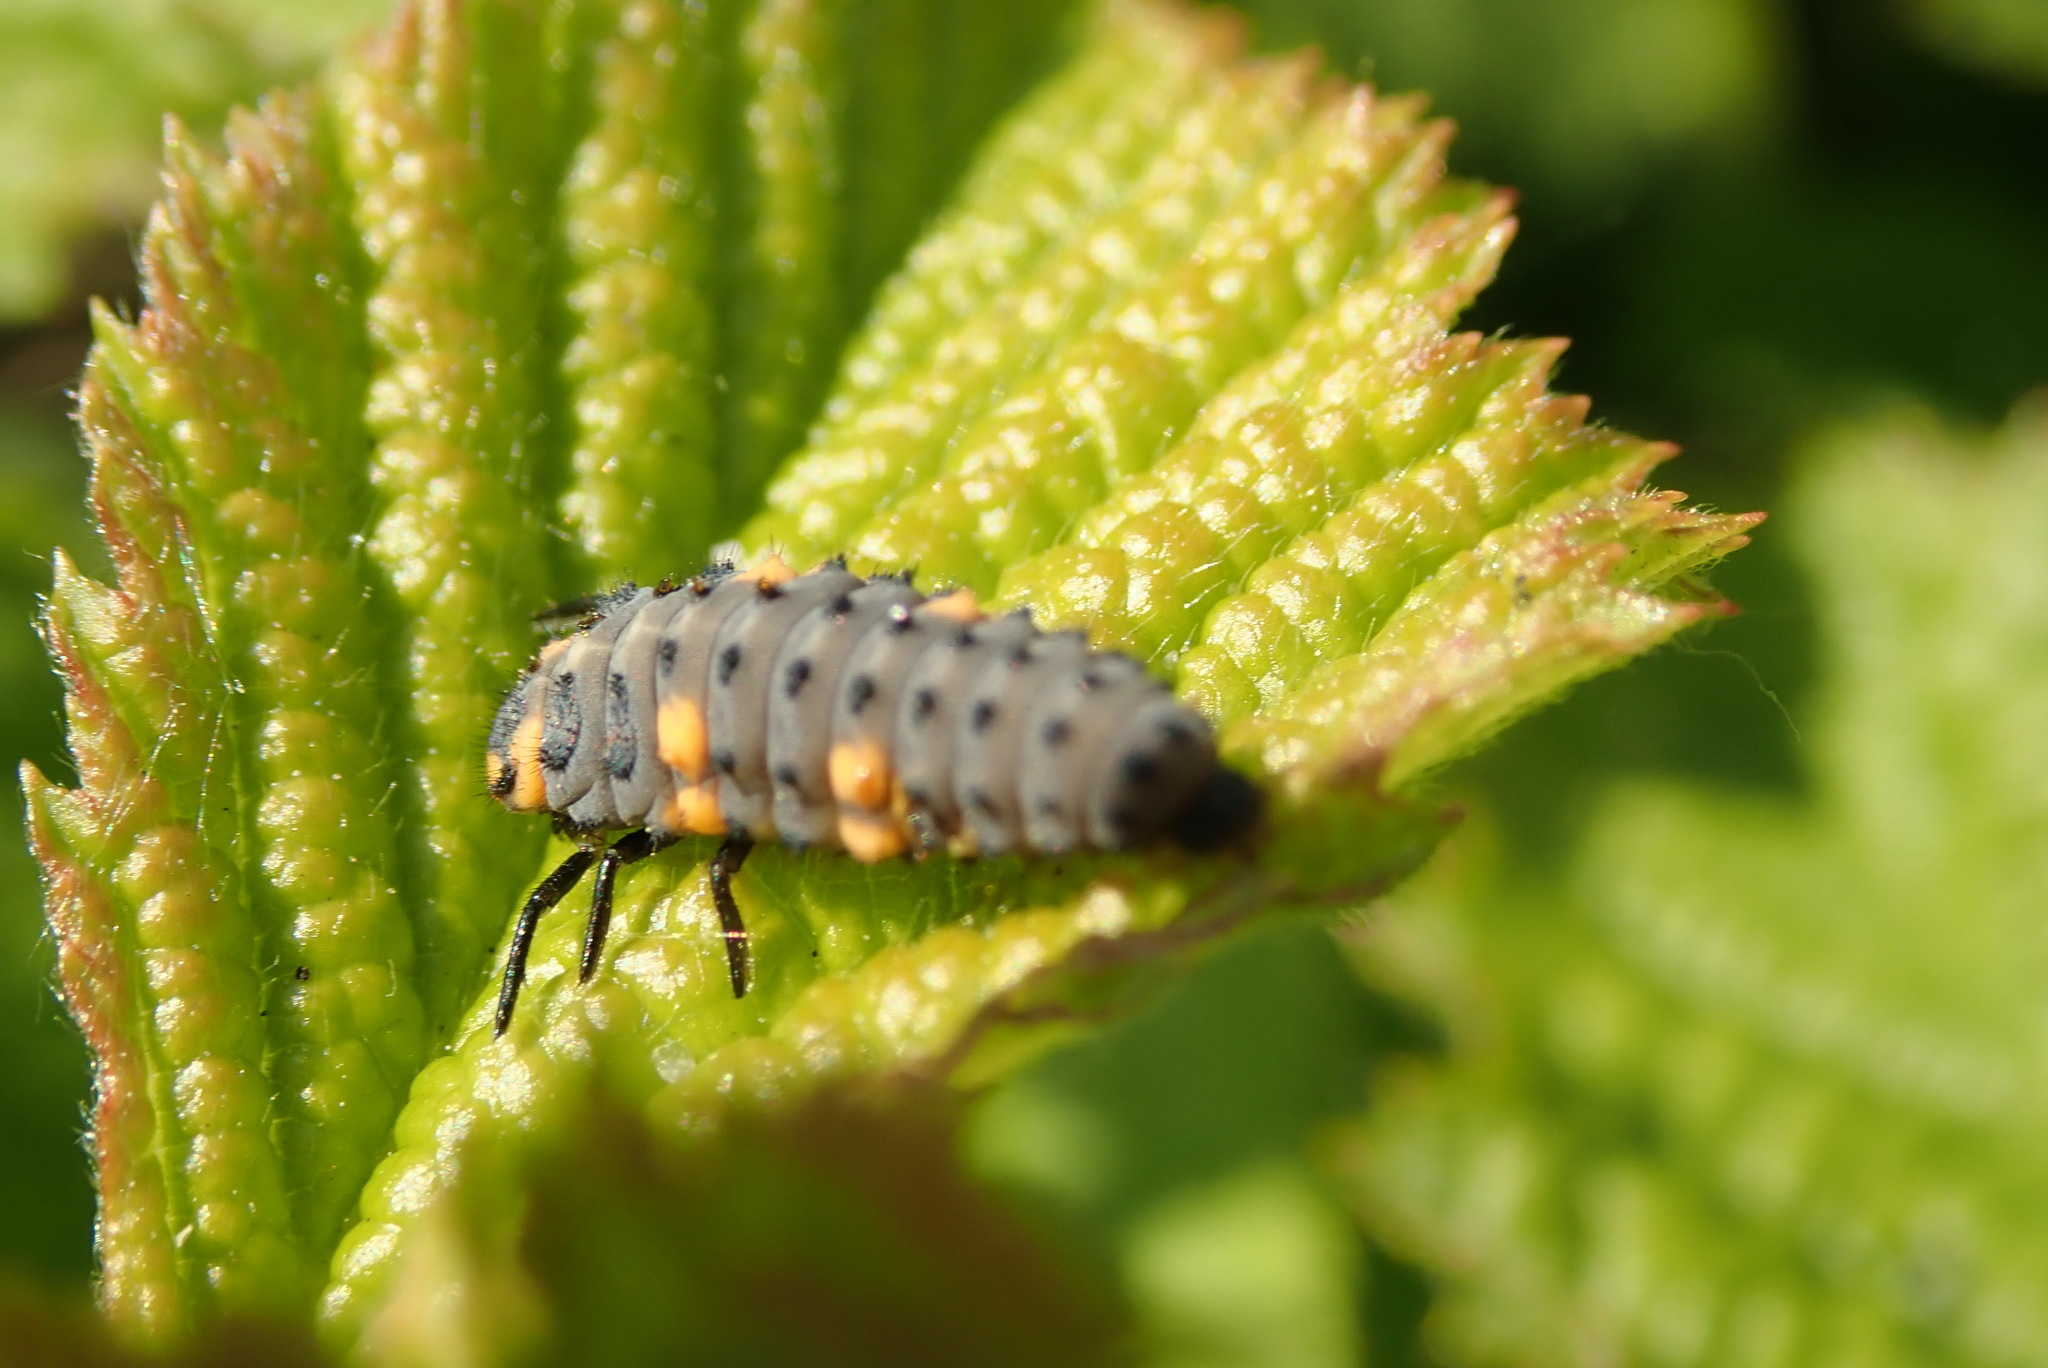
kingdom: Animalia
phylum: Arthropoda
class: Insecta
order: Coleoptera
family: Coccinellidae
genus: Coccinella
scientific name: Coccinella septempunctata
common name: Sevenspotted lady beetle
